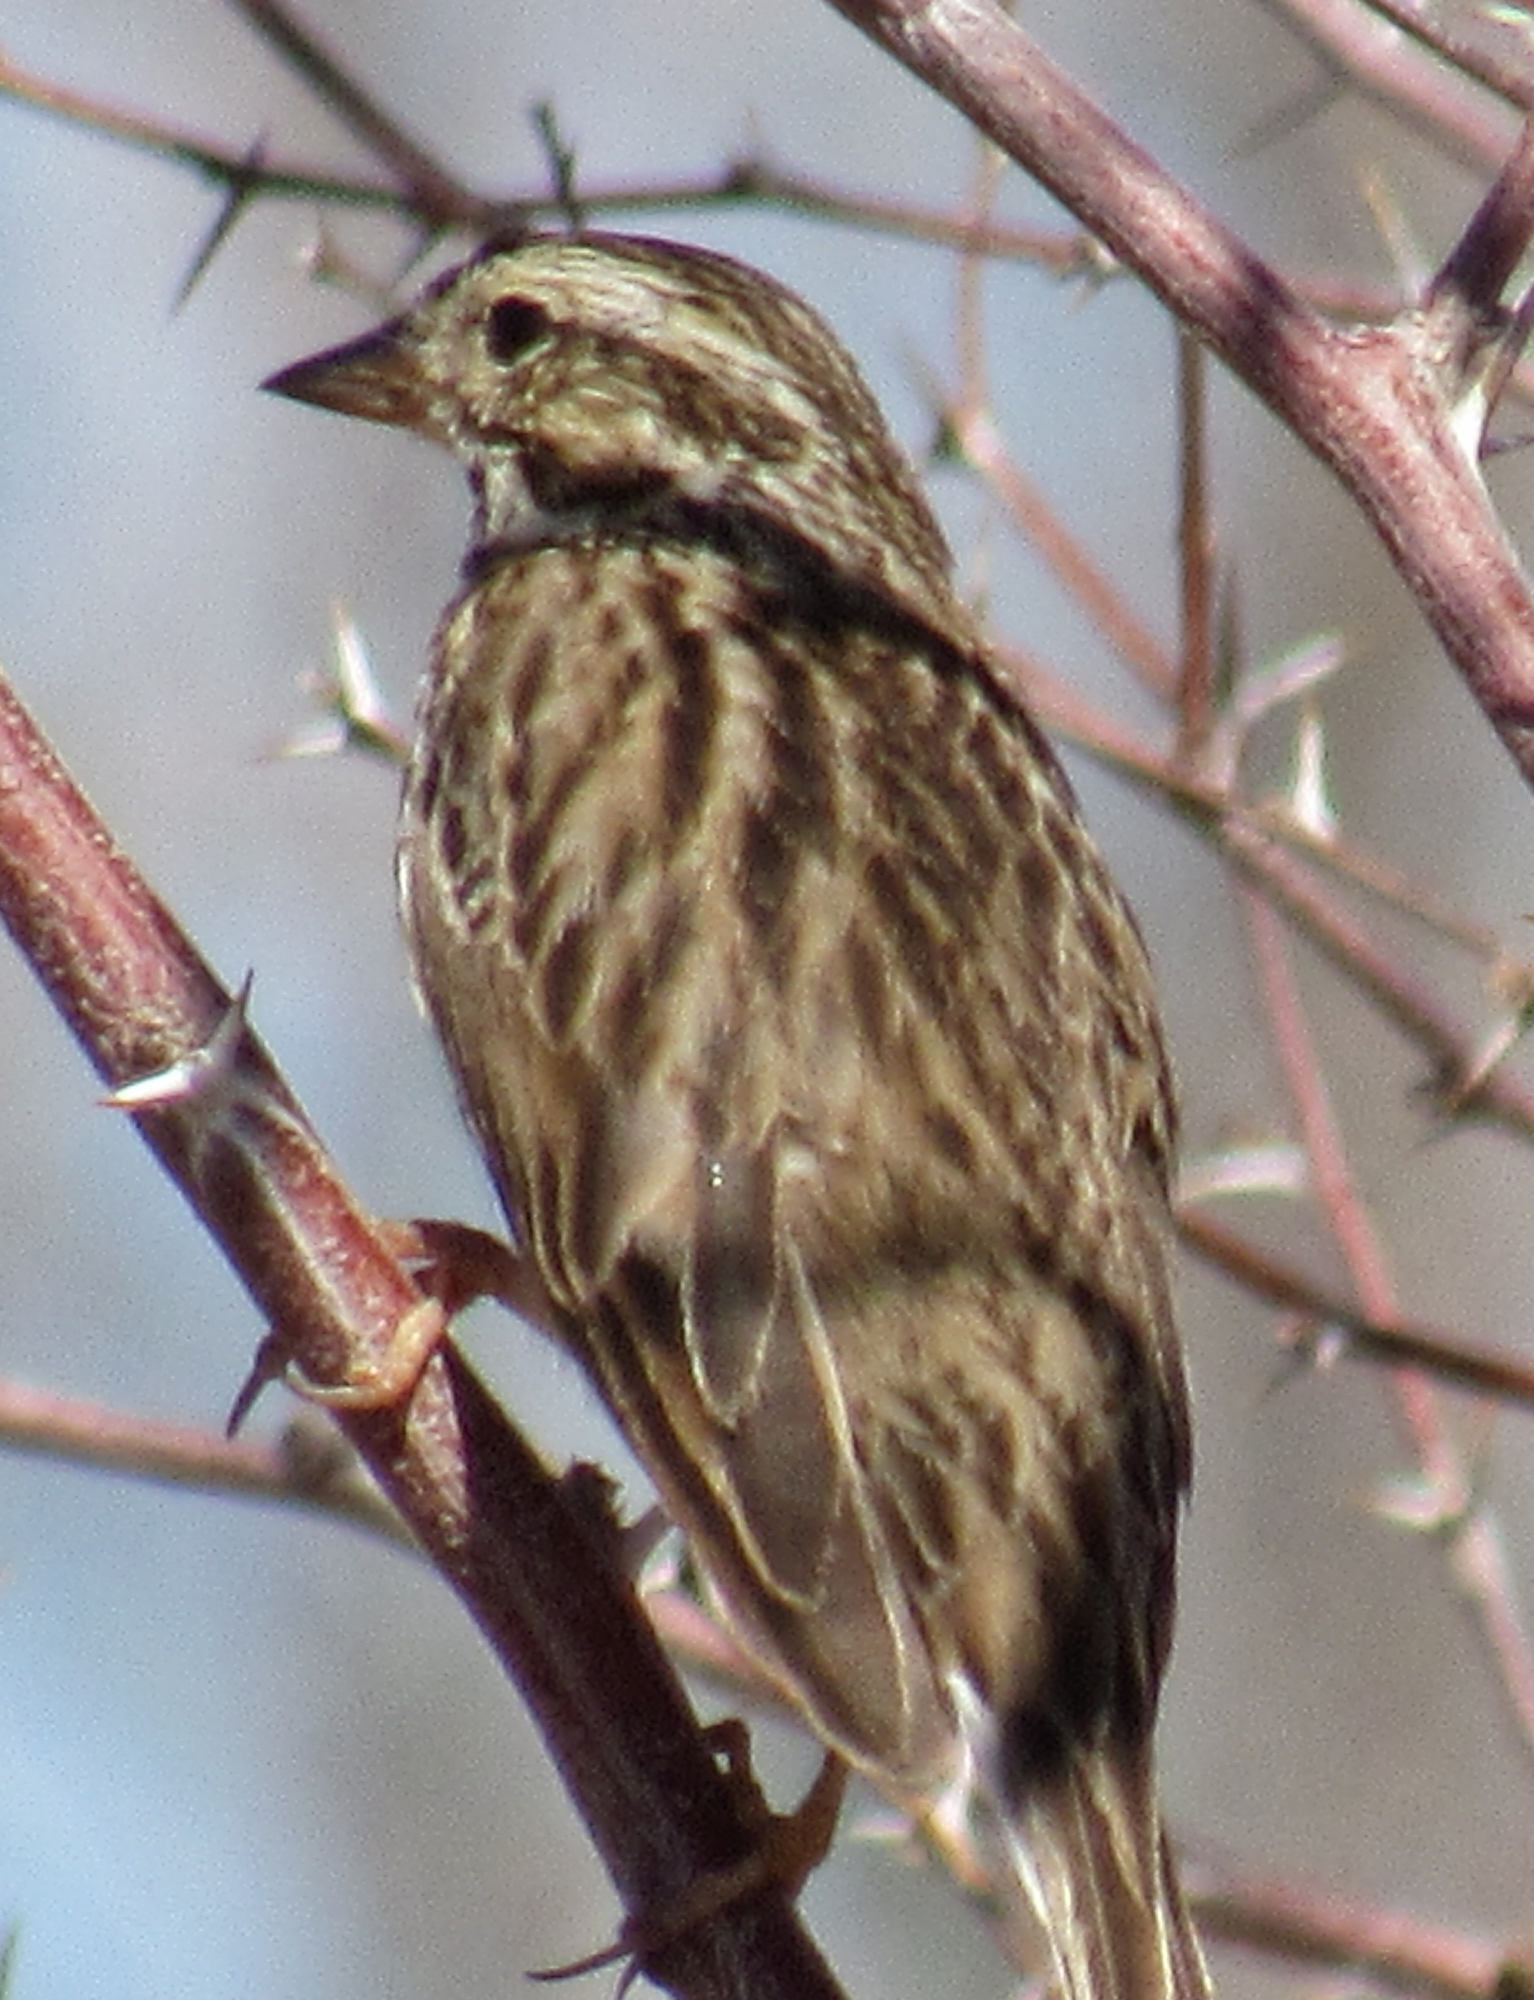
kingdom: Animalia
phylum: Chordata
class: Aves
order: Passeriformes
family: Passerellidae
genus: Passerculus
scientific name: Passerculus sandwichensis
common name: Savannah sparrow
